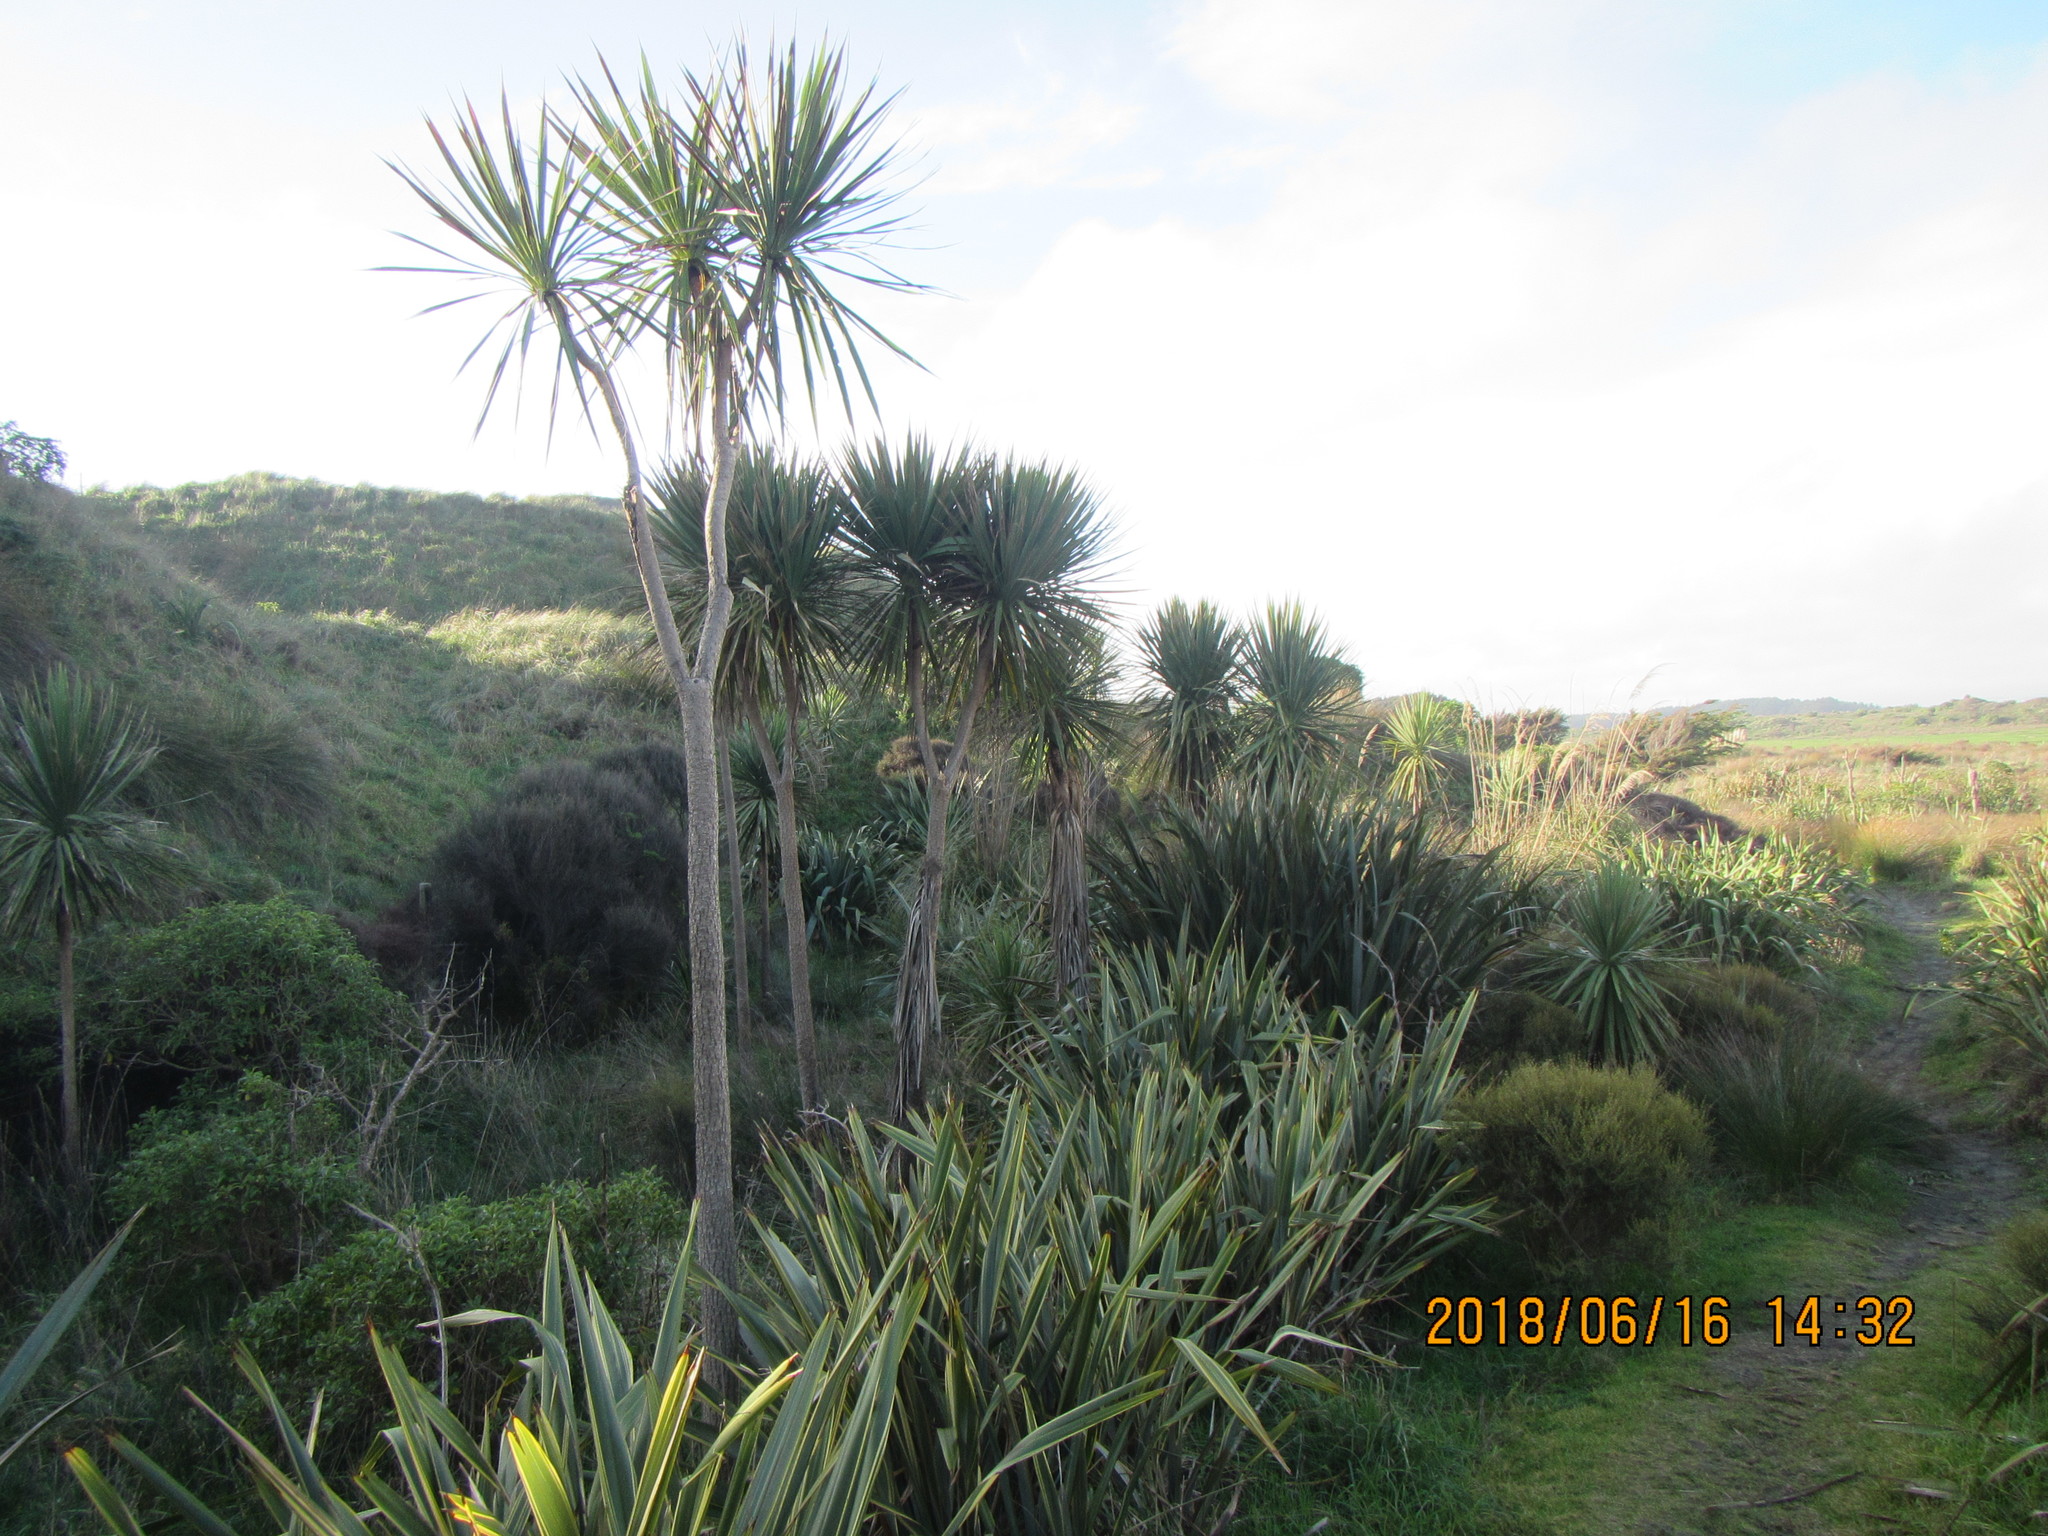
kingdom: Plantae
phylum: Tracheophyta
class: Liliopsida
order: Asparagales
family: Asparagaceae
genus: Cordyline
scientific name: Cordyline australis
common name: Cabbage-palm
